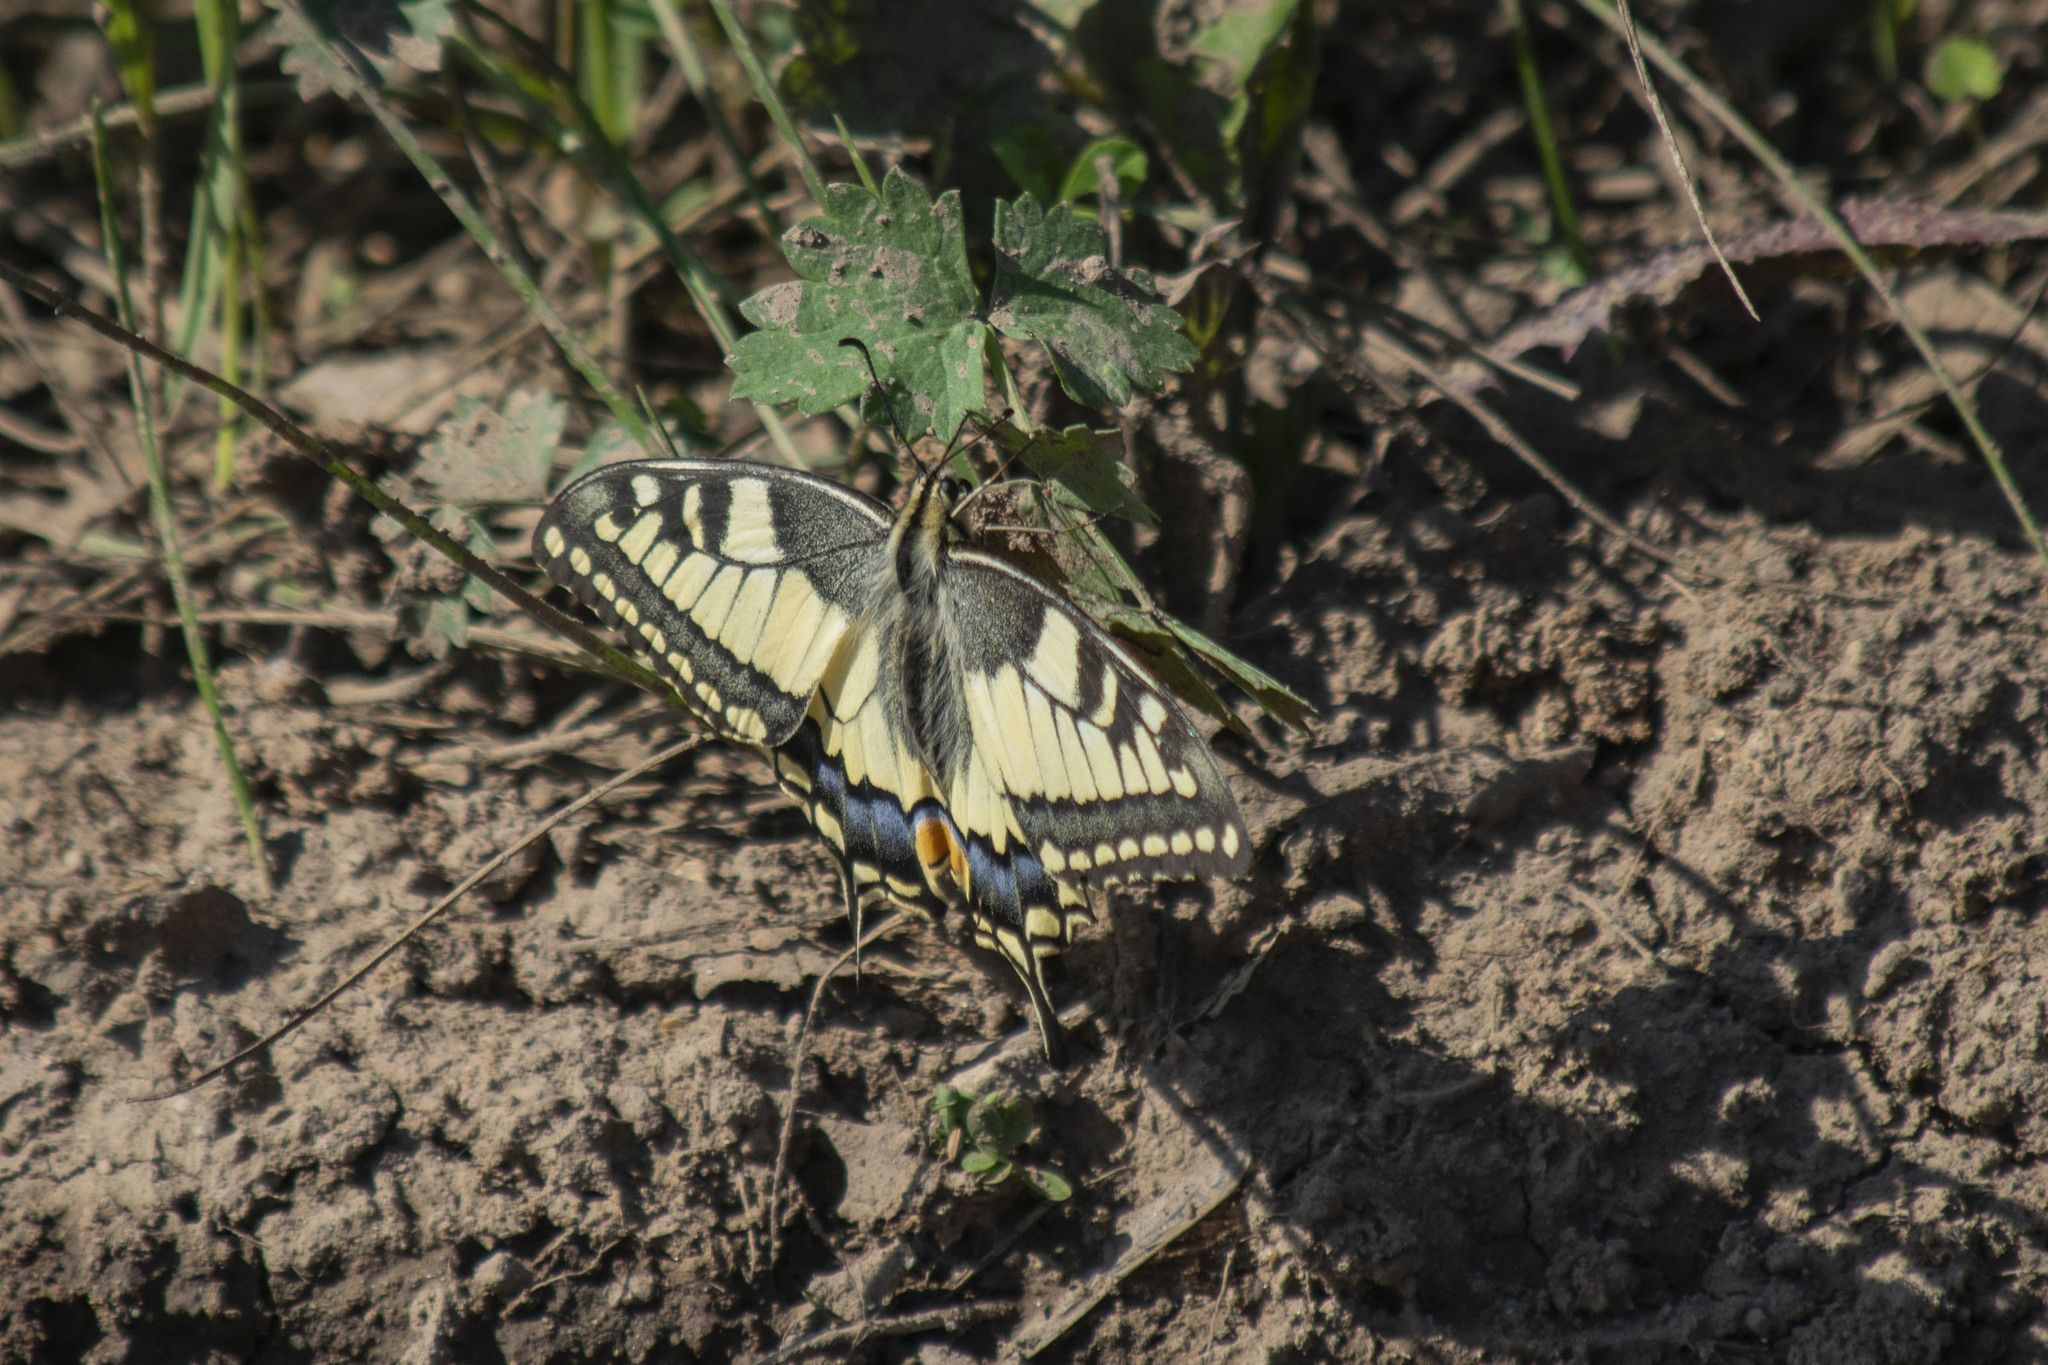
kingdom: Animalia
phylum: Arthropoda
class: Insecta
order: Lepidoptera
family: Papilionidae
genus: Papilio
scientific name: Papilio machaon
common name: Swallowtail
